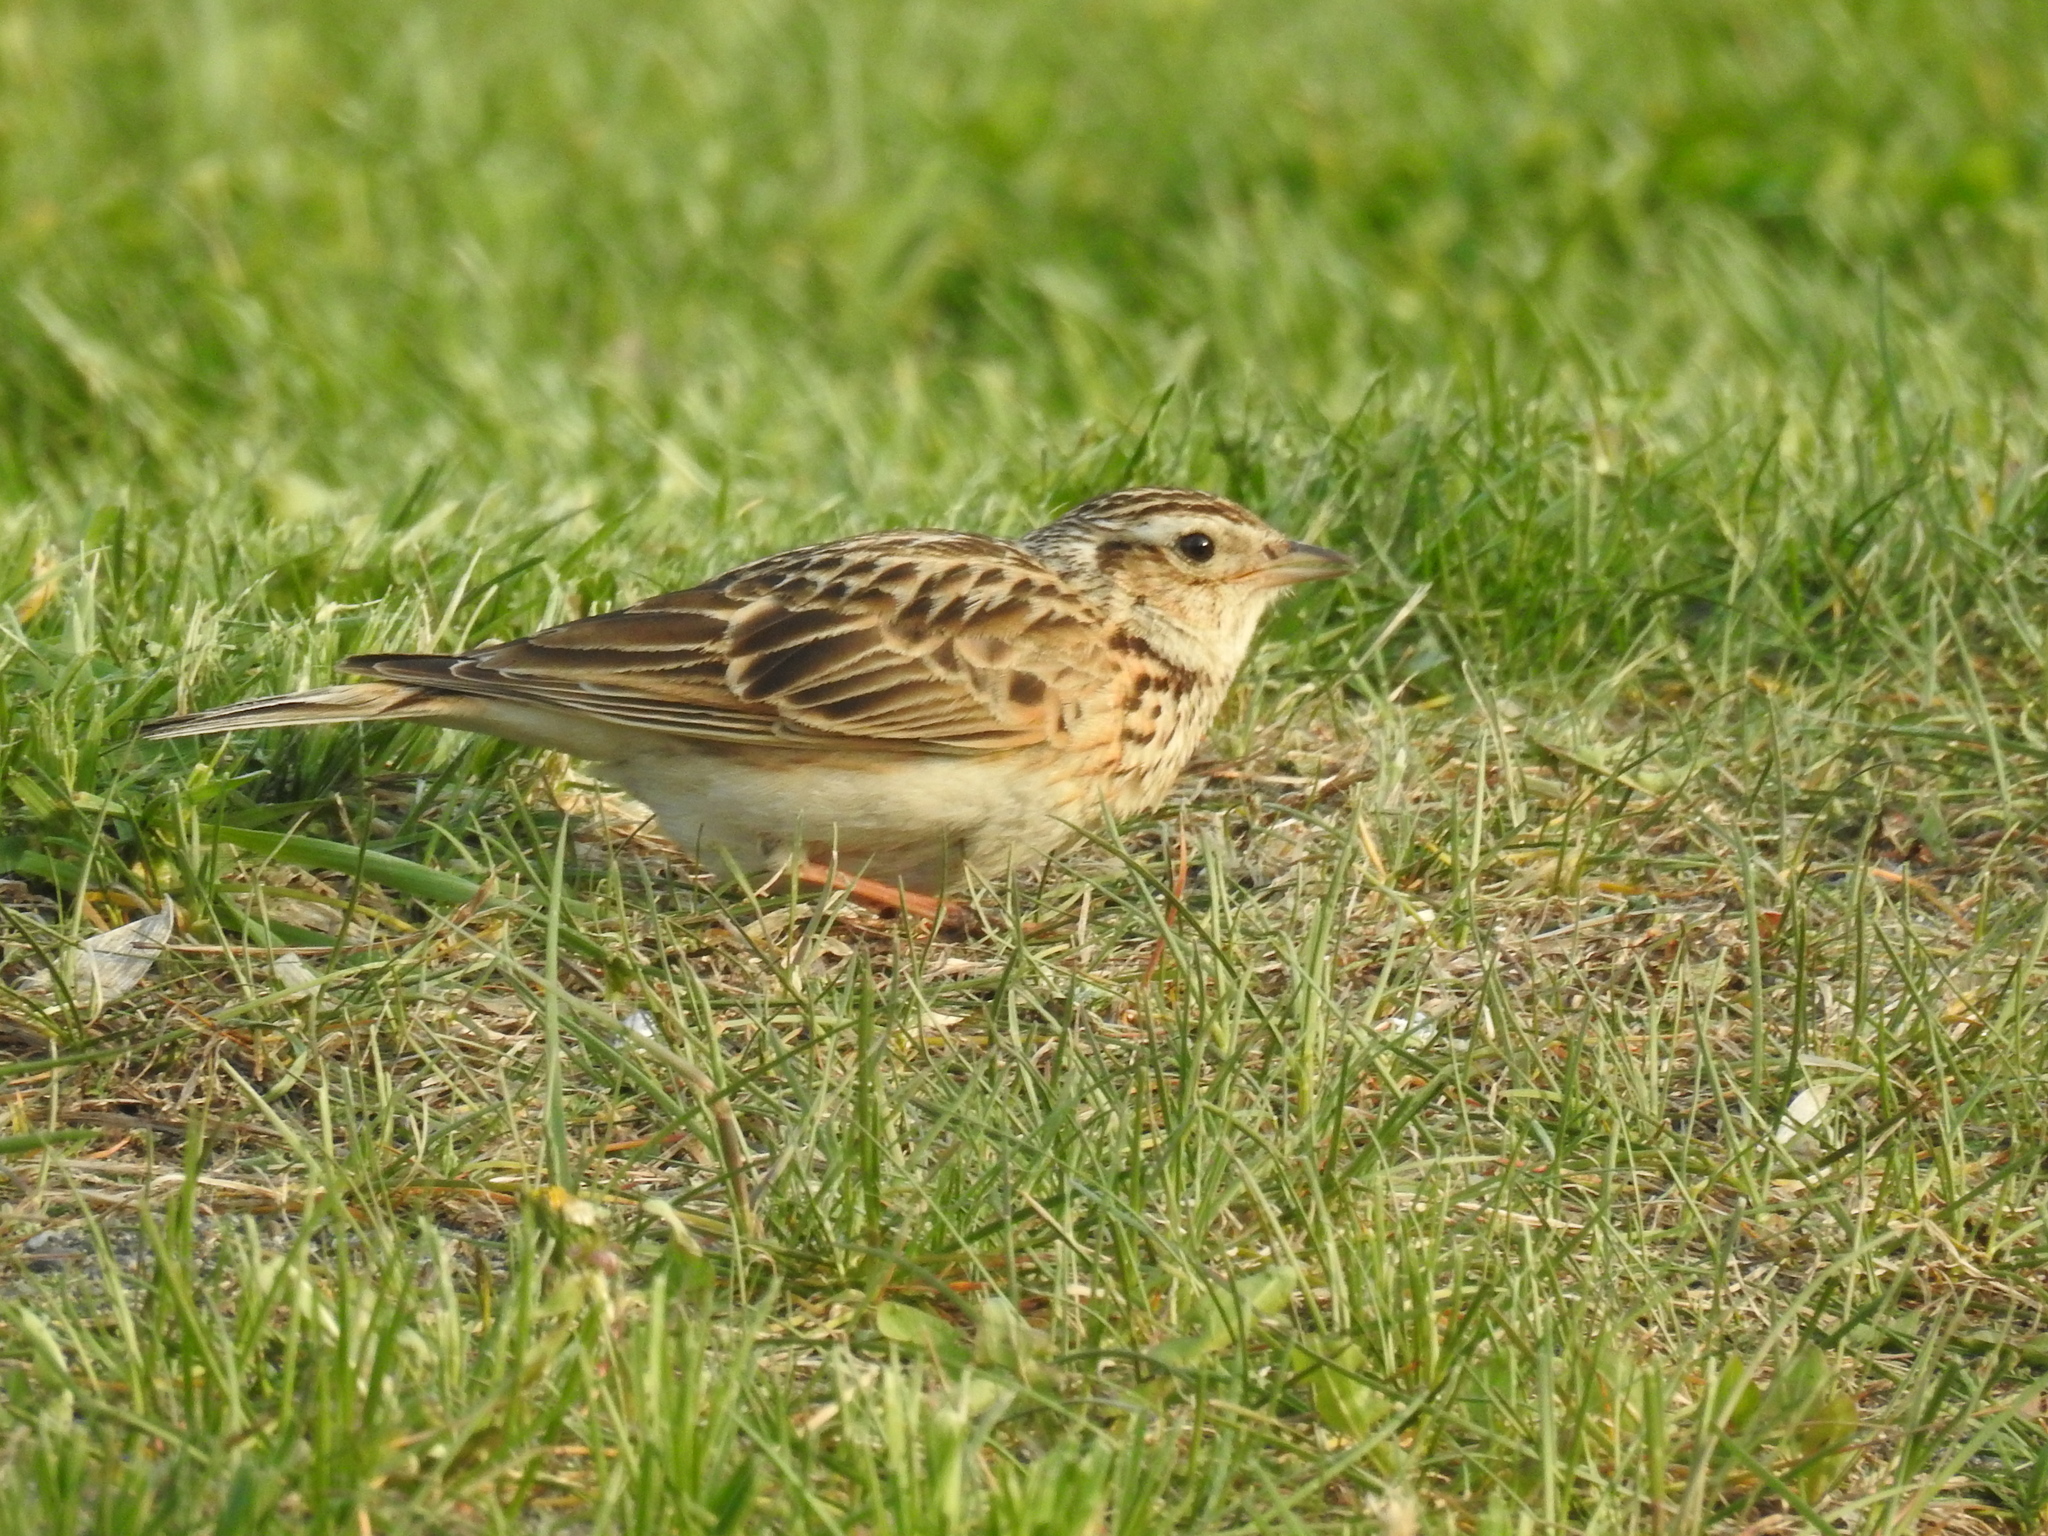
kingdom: Animalia
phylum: Chordata
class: Aves
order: Passeriformes
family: Alaudidae
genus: Alauda
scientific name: Alauda arvensis
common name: Eurasian skylark
